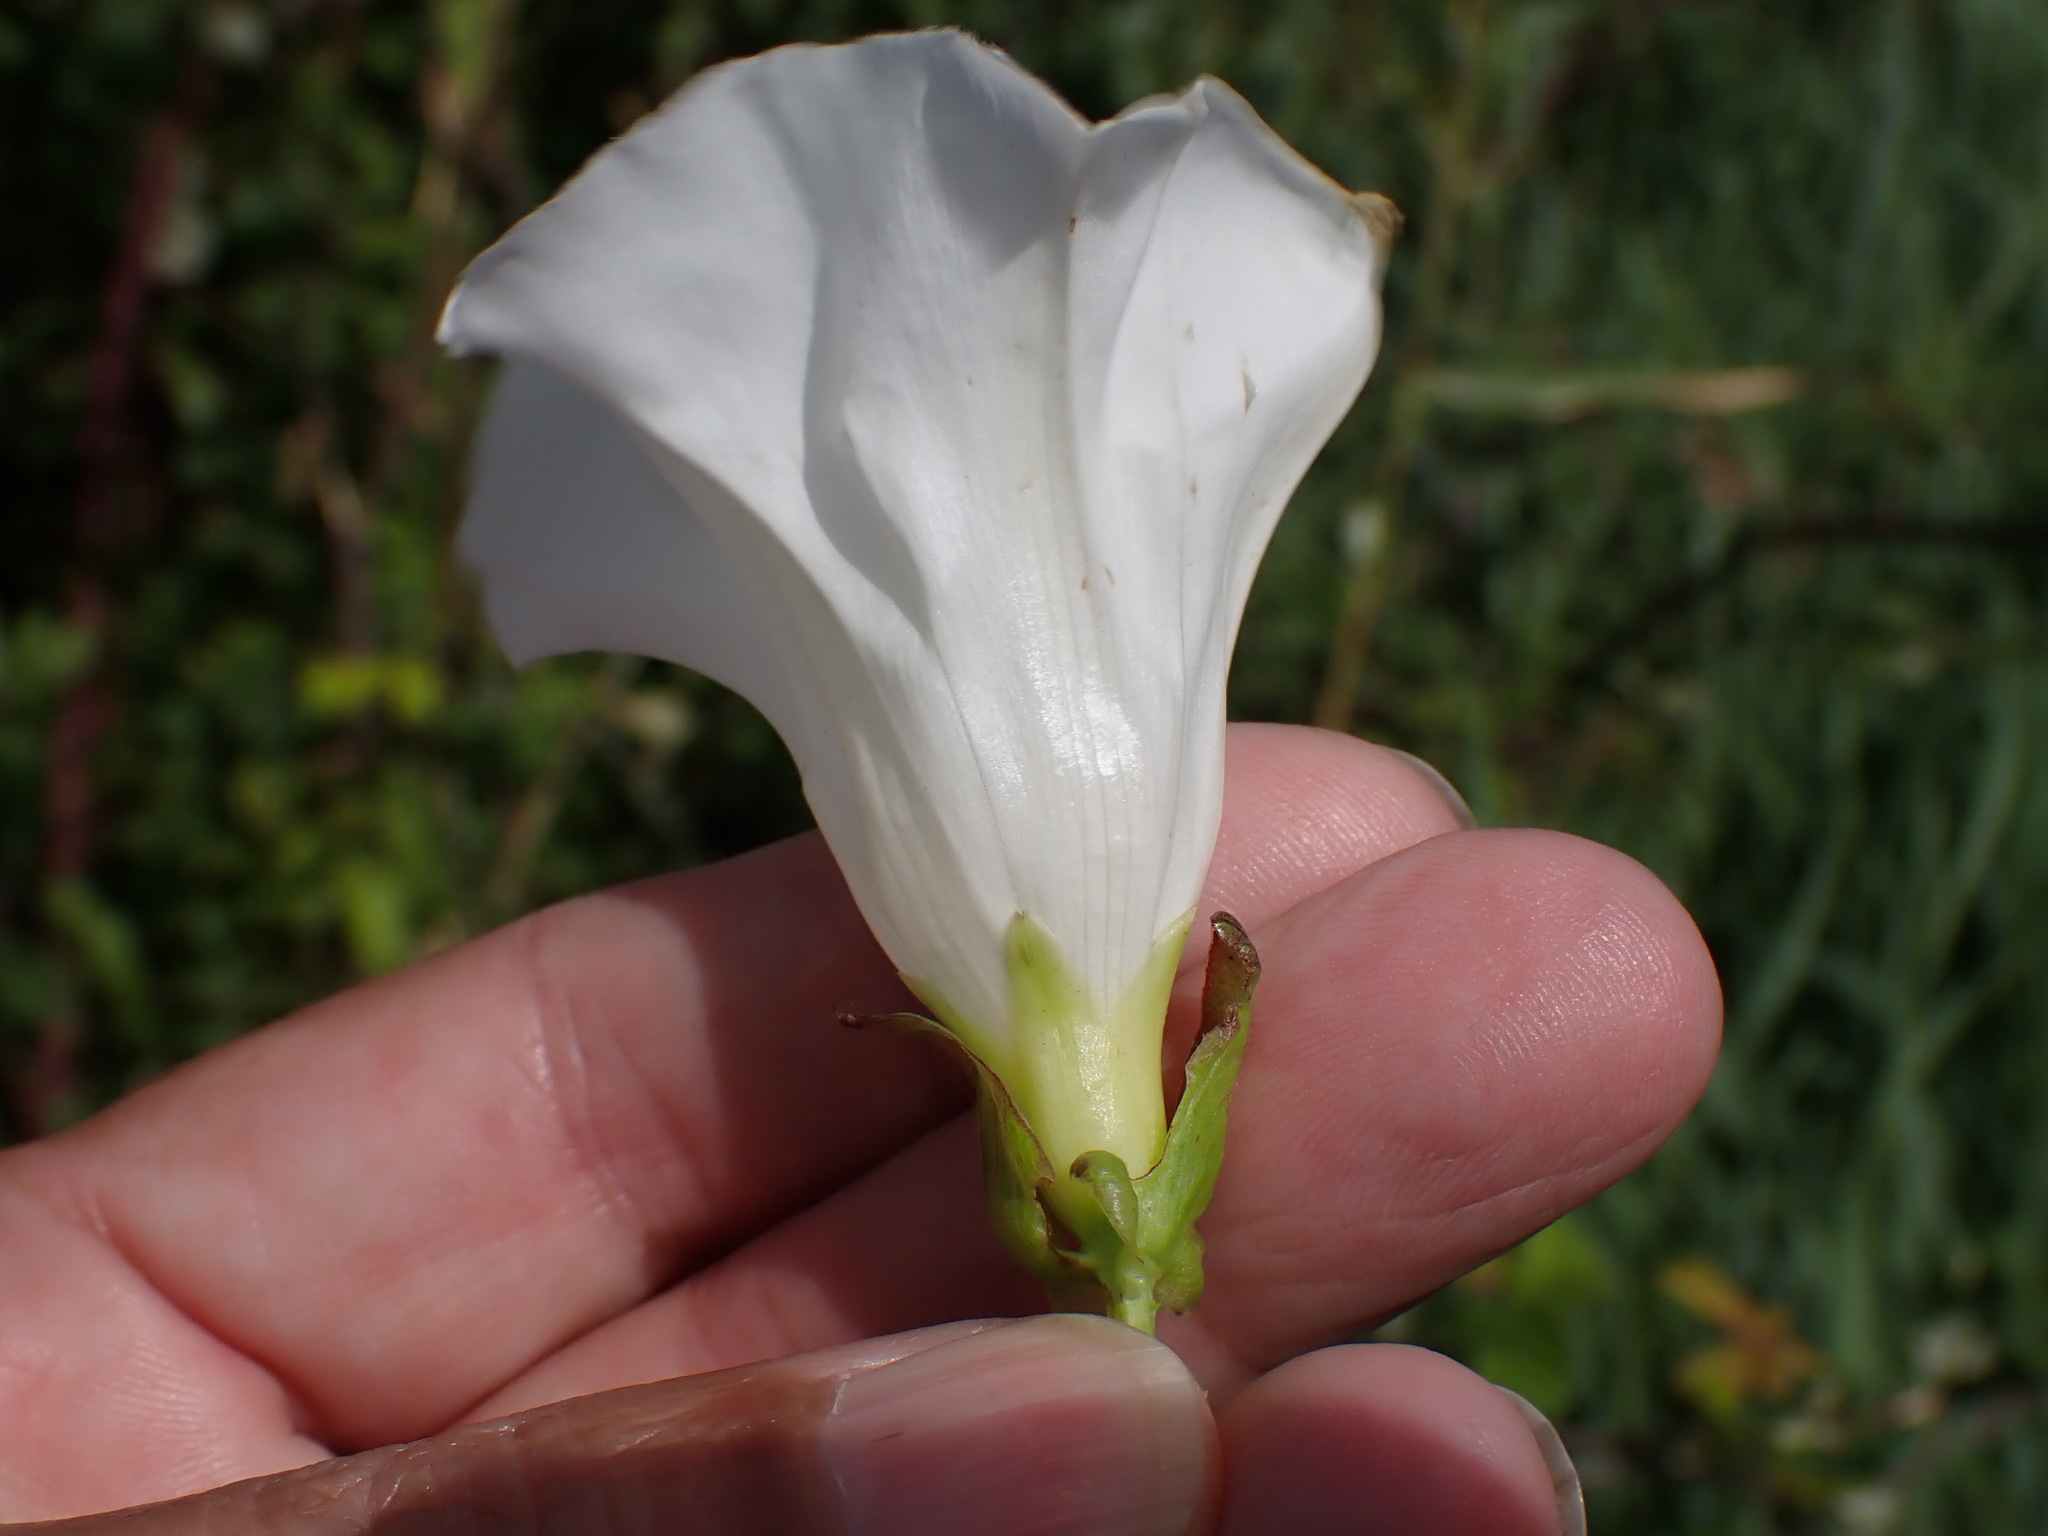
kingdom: Plantae
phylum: Tracheophyta
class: Magnoliopsida
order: Solanales
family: Convolvulaceae
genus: Calystegia
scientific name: Calystegia sepium
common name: Hedge bindweed
